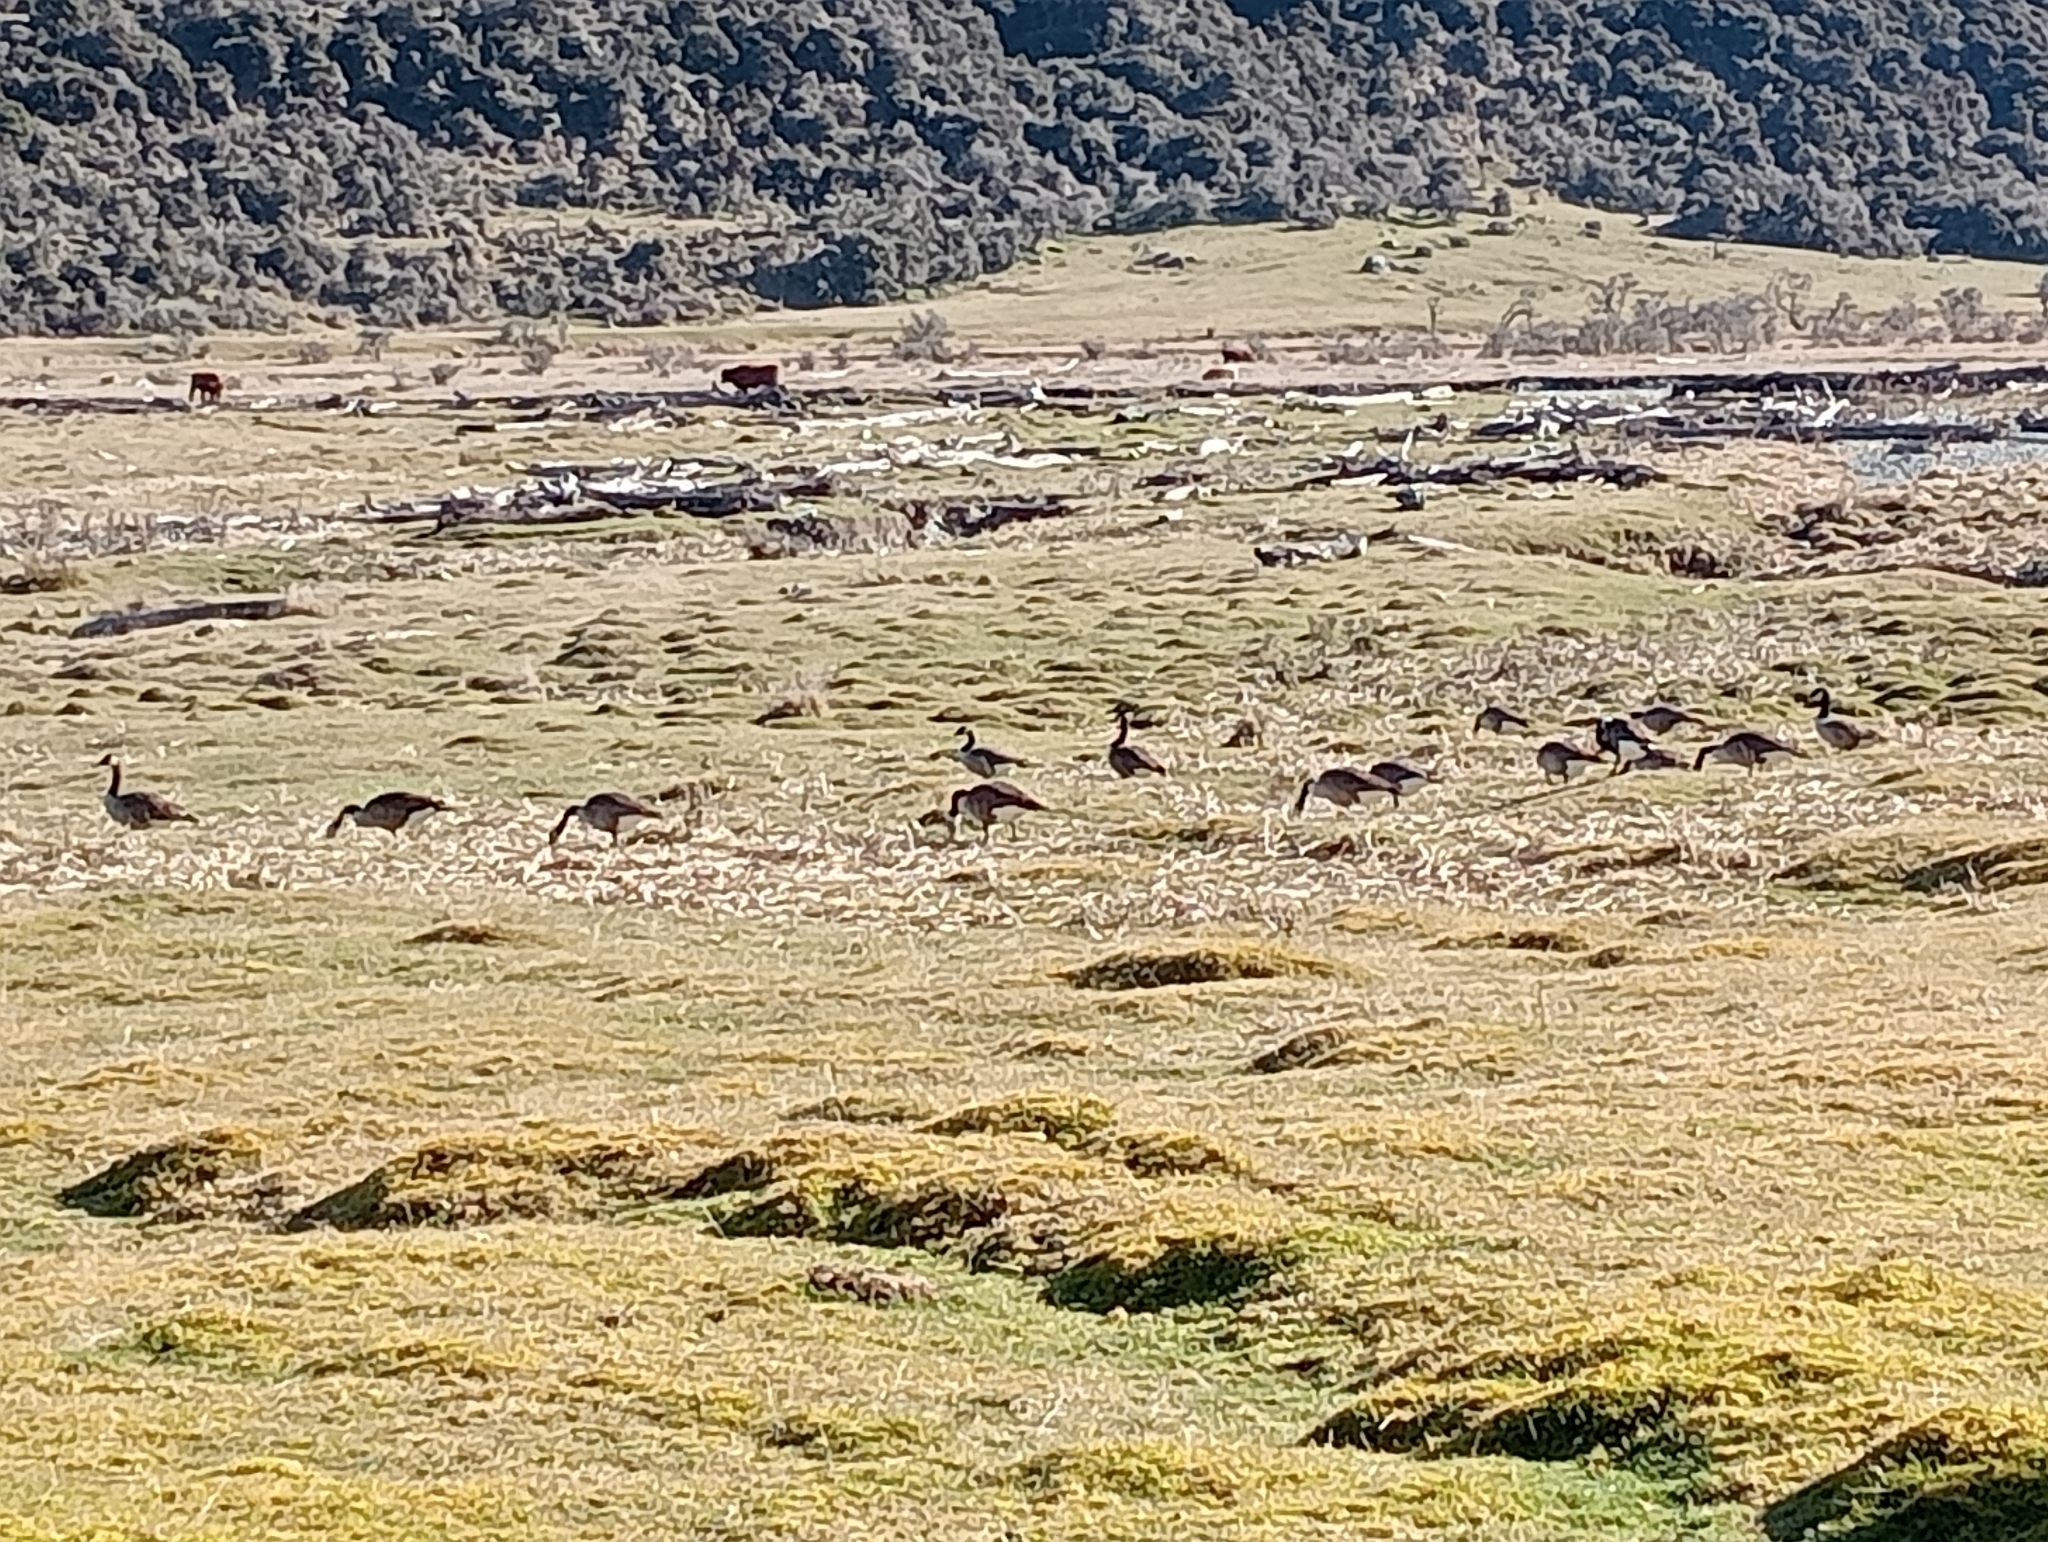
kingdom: Animalia
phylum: Chordata
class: Aves
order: Anseriformes
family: Anatidae
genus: Branta
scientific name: Branta canadensis
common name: Canada goose
